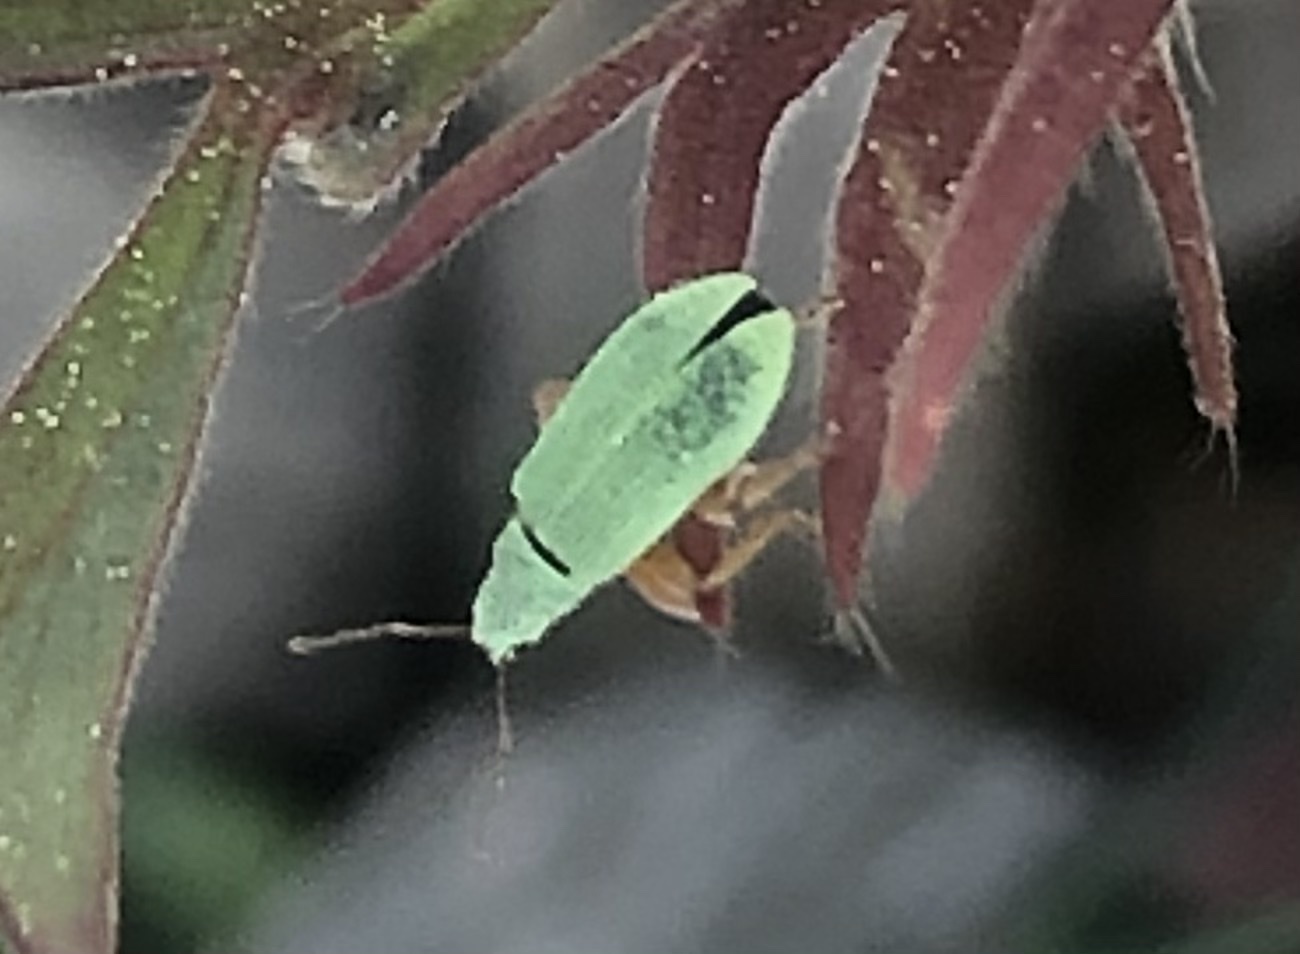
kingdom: Animalia
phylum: Arthropoda
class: Insecta
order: Coleoptera
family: Curculionidae
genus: Polydrusus
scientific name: Polydrusus impressifrons
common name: Weevil
